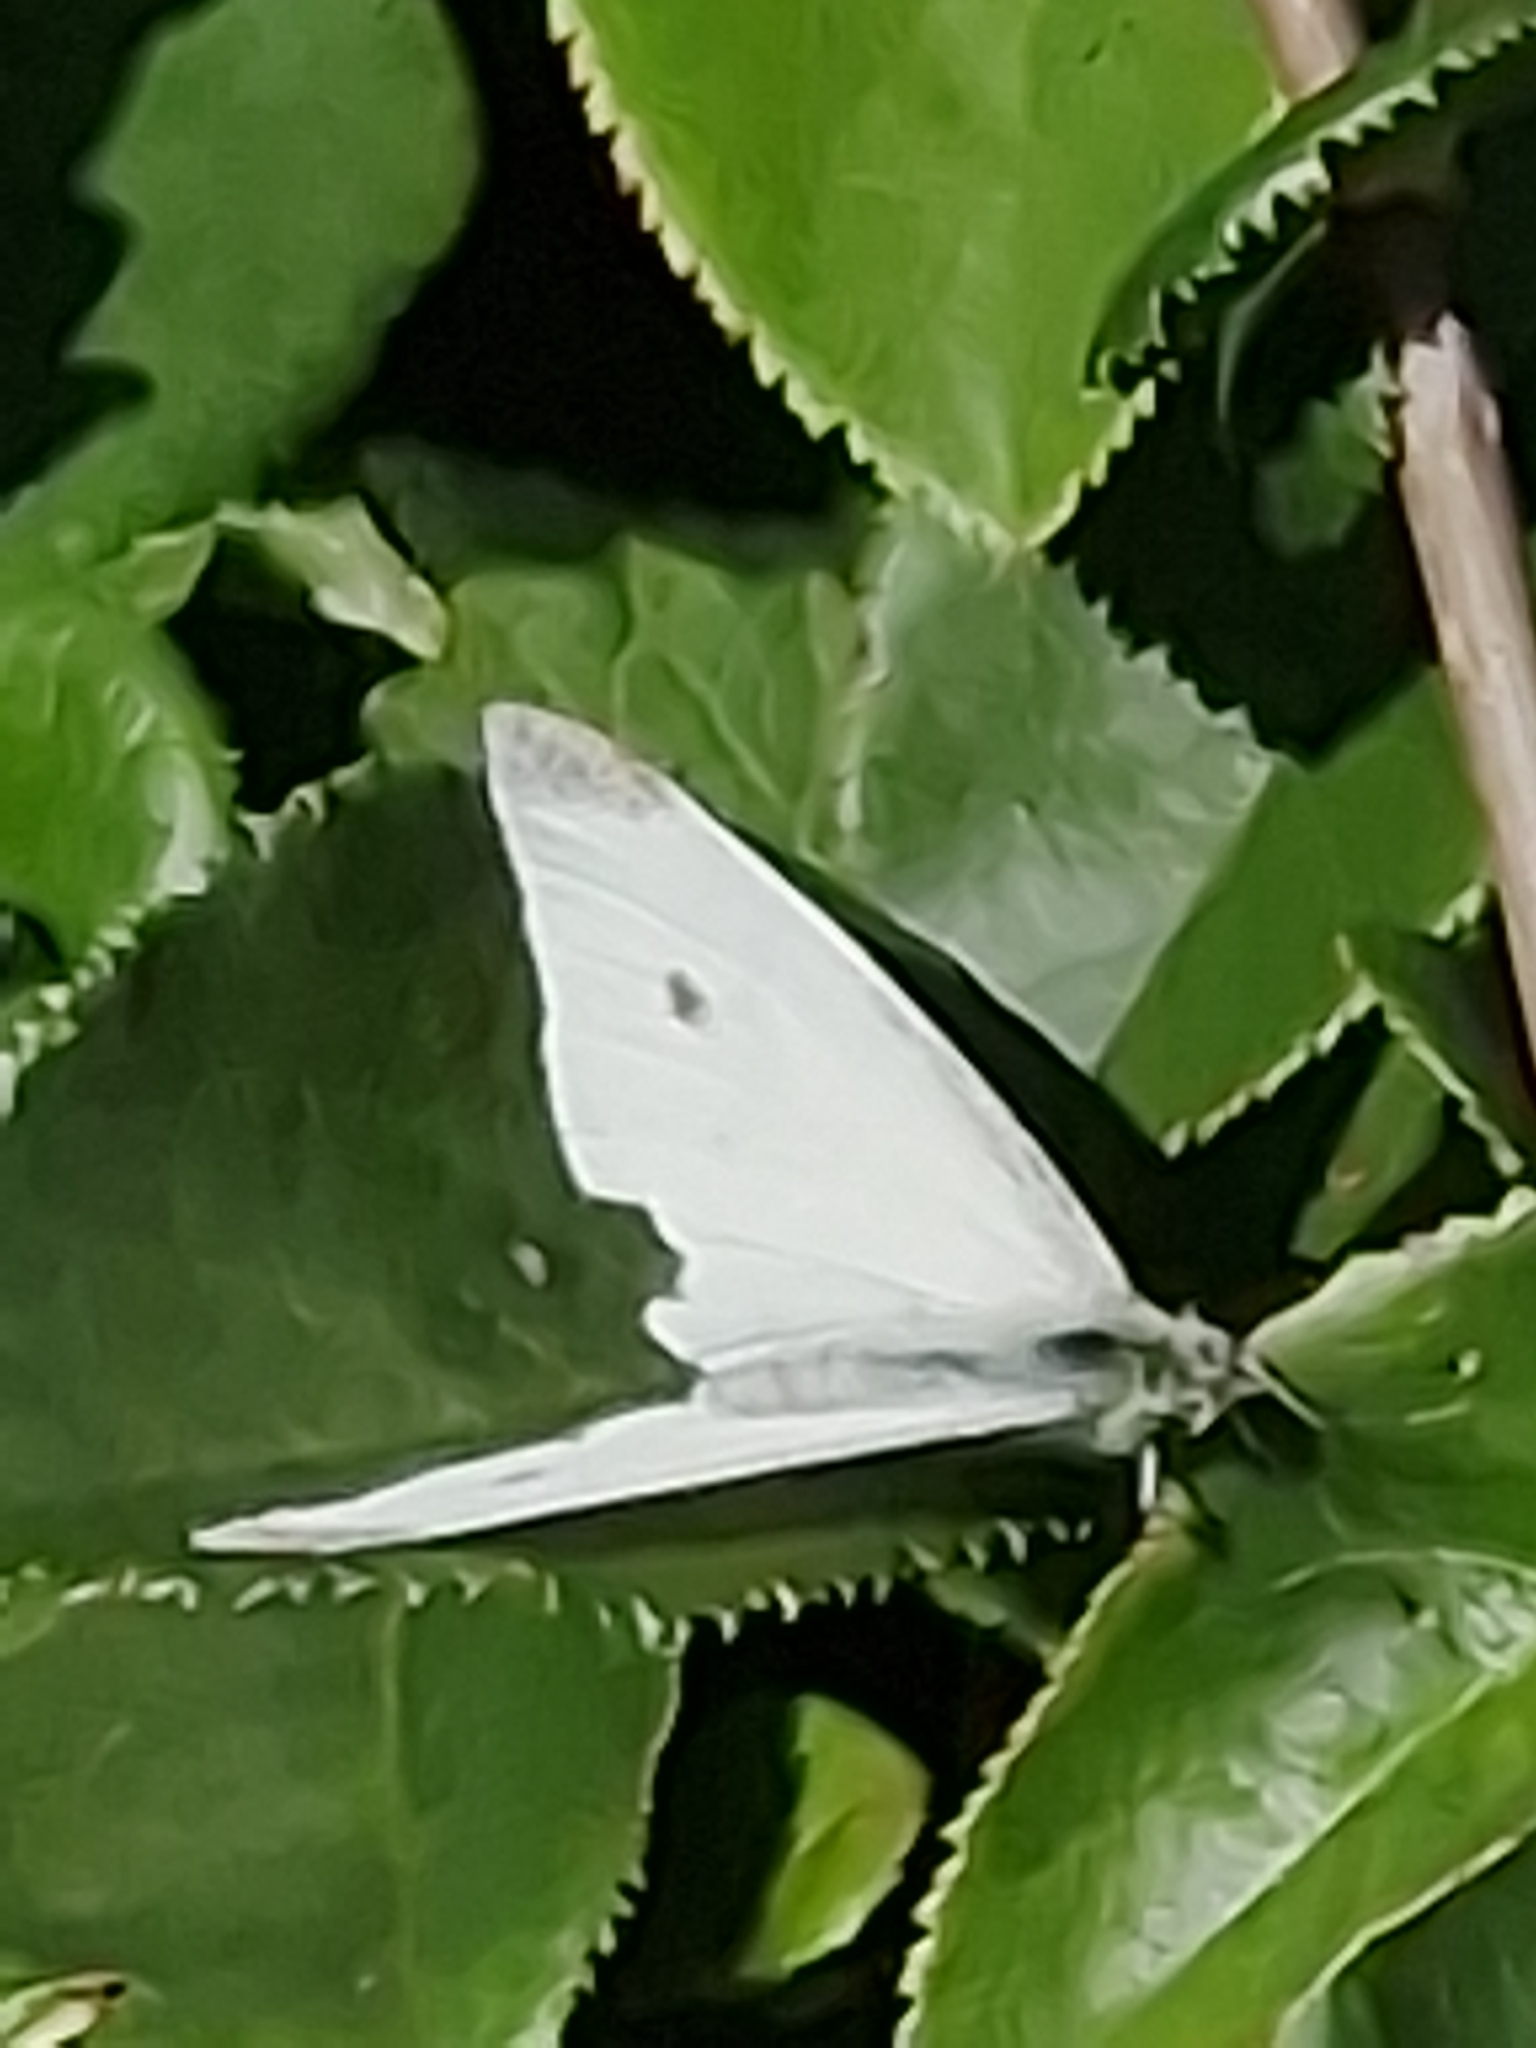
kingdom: Animalia
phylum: Arthropoda
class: Insecta
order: Lepidoptera
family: Pieridae
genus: Pieris
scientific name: Pieris rapae
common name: Small white
